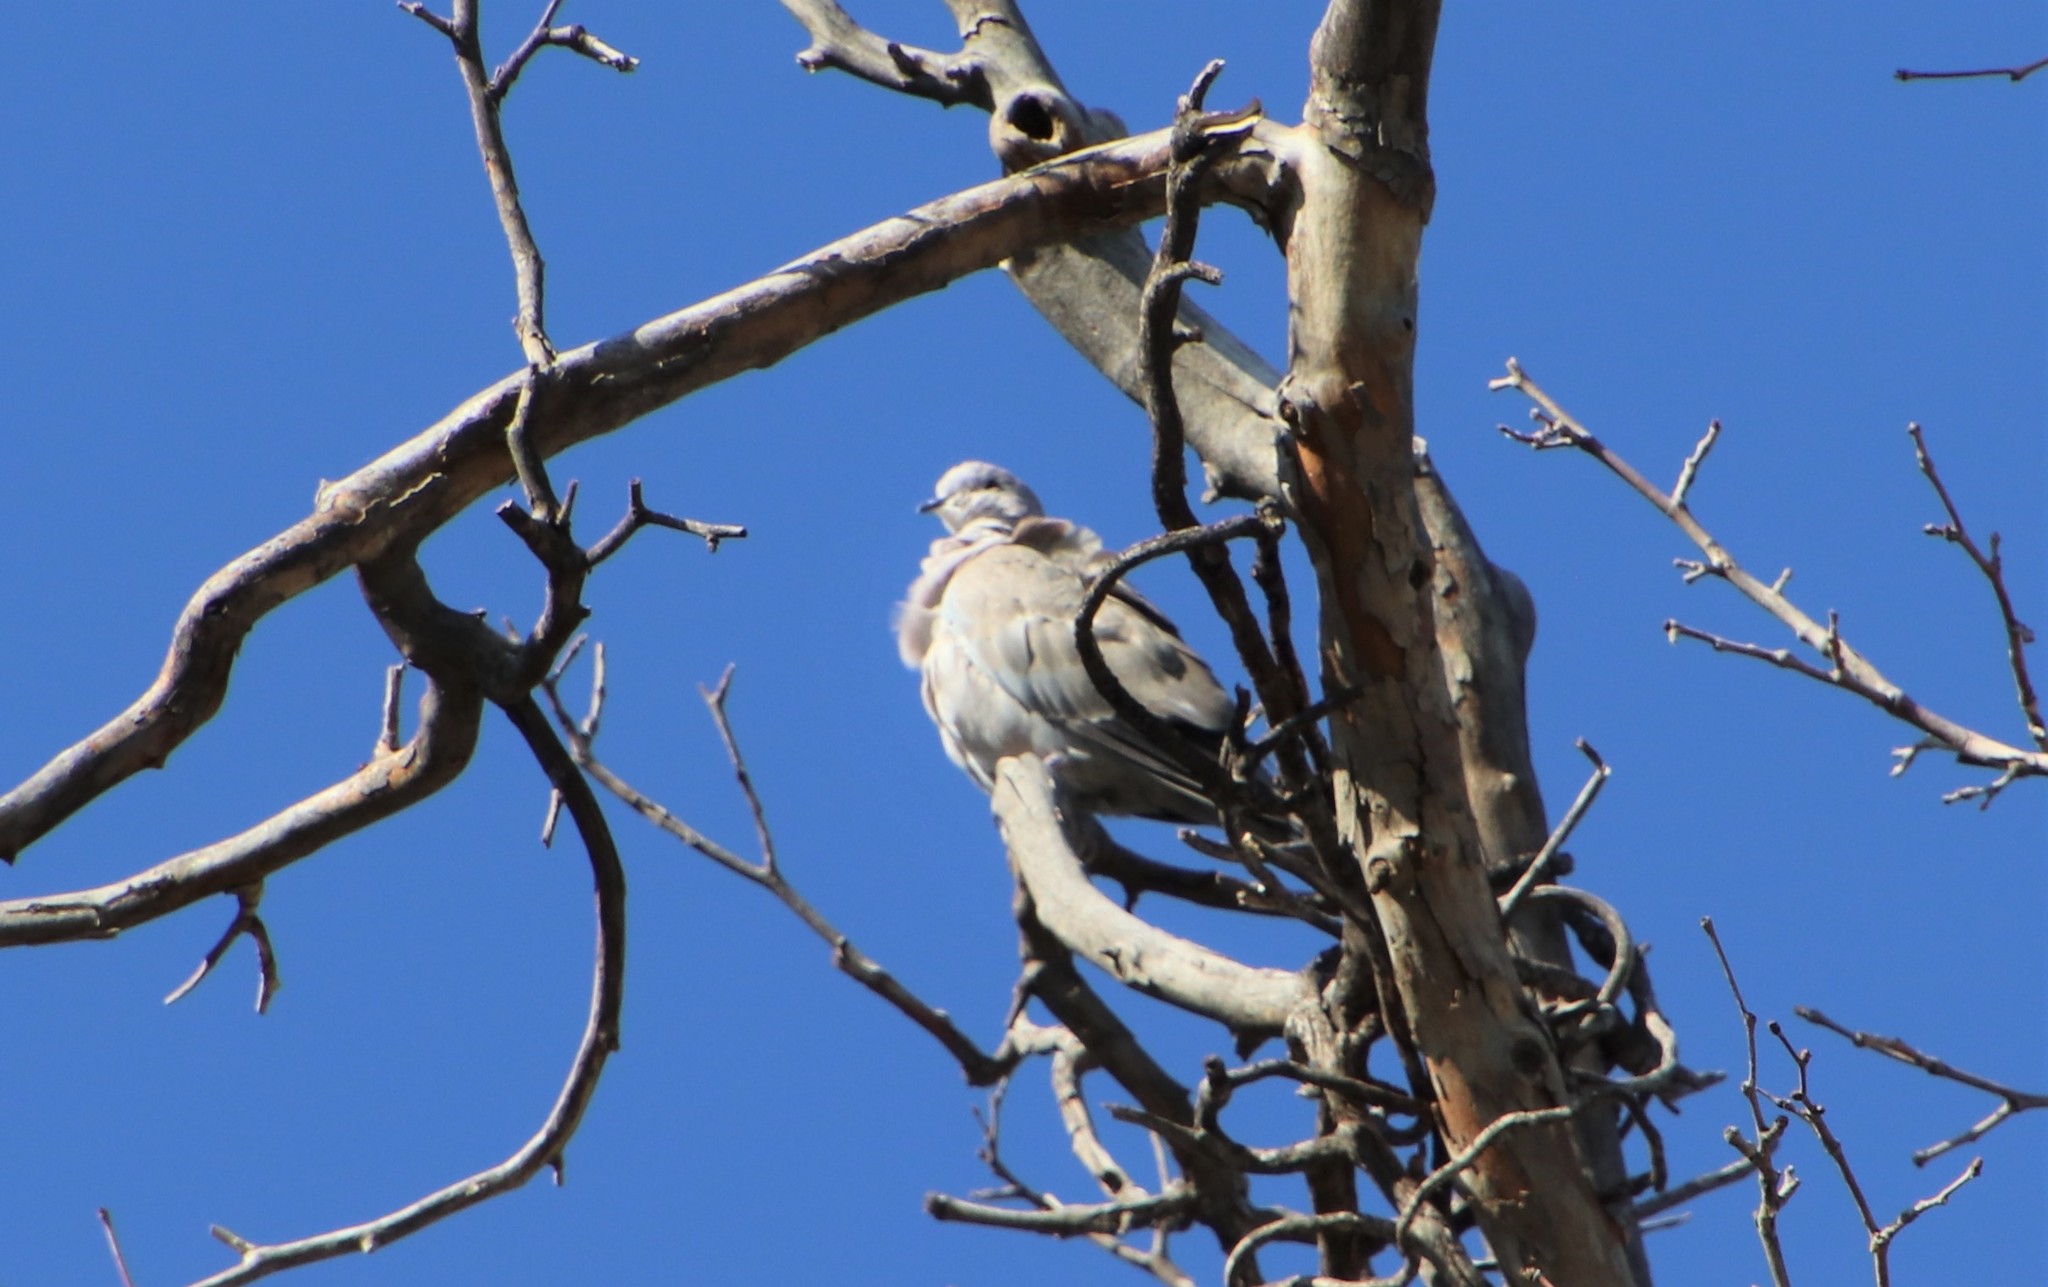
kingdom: Animalia
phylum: Chordata
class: Aves
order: Columbiformes
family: Columbidae
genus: Streptopelia
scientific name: Streptopelia decaocto
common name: Eurasian collared dove
